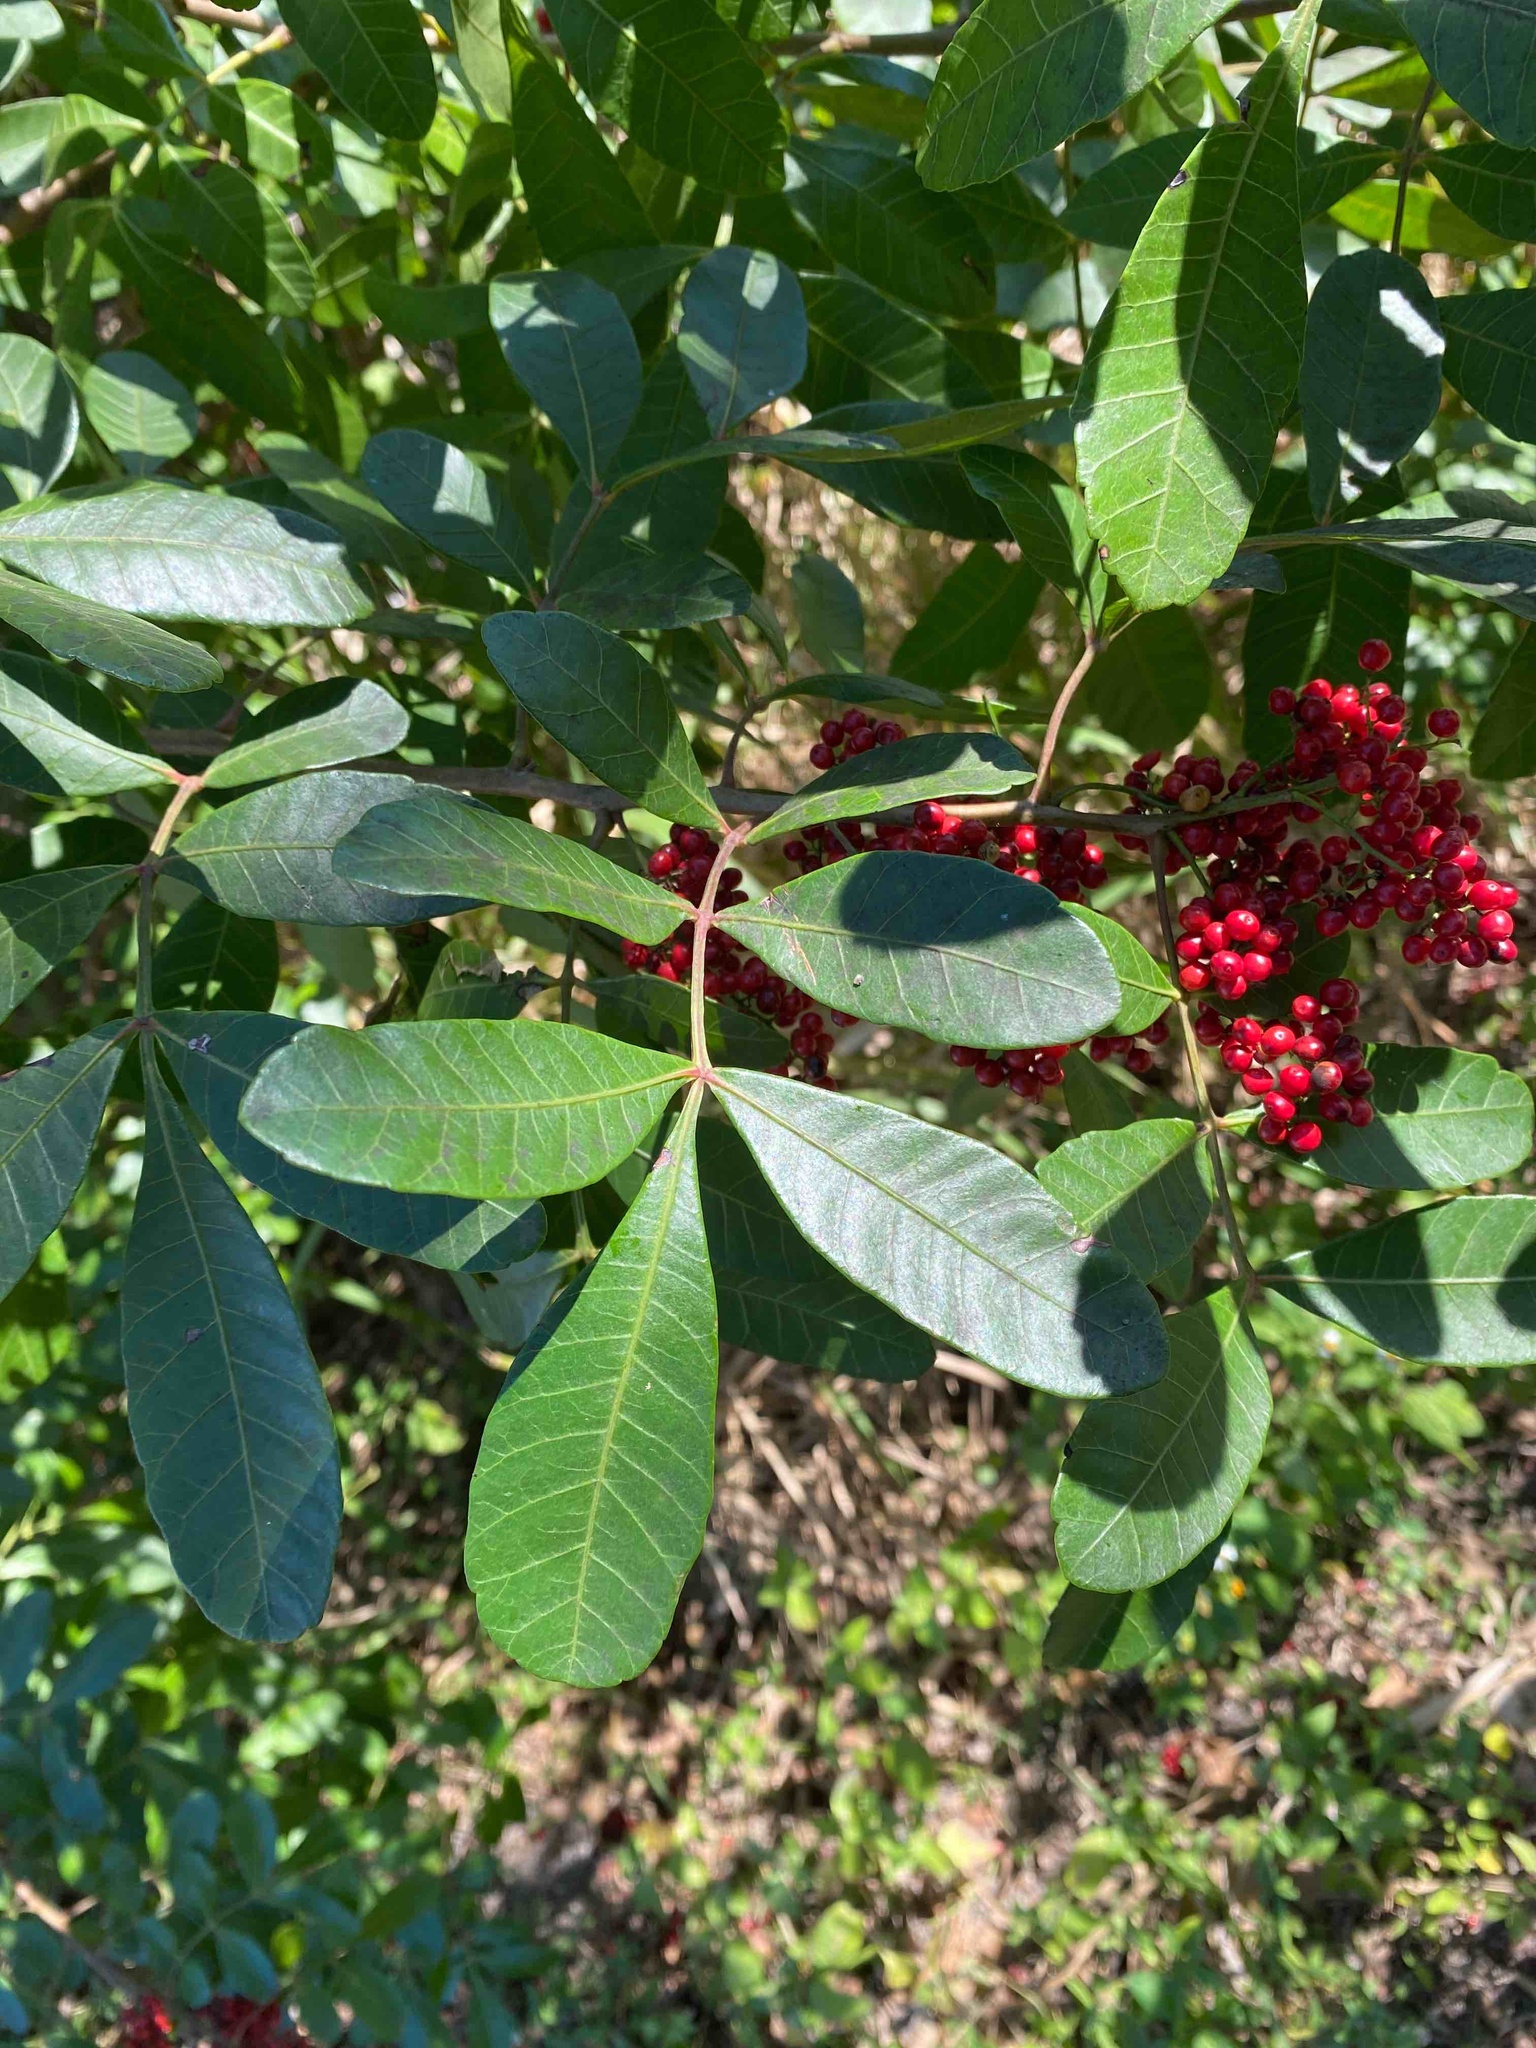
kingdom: Plantae
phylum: Tracheophyta
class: Magnoliopsida
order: Sapindales
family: Anacardiaceae
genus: Schinus
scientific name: Schinus terebinthifolia
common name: Brazilian peppertree
